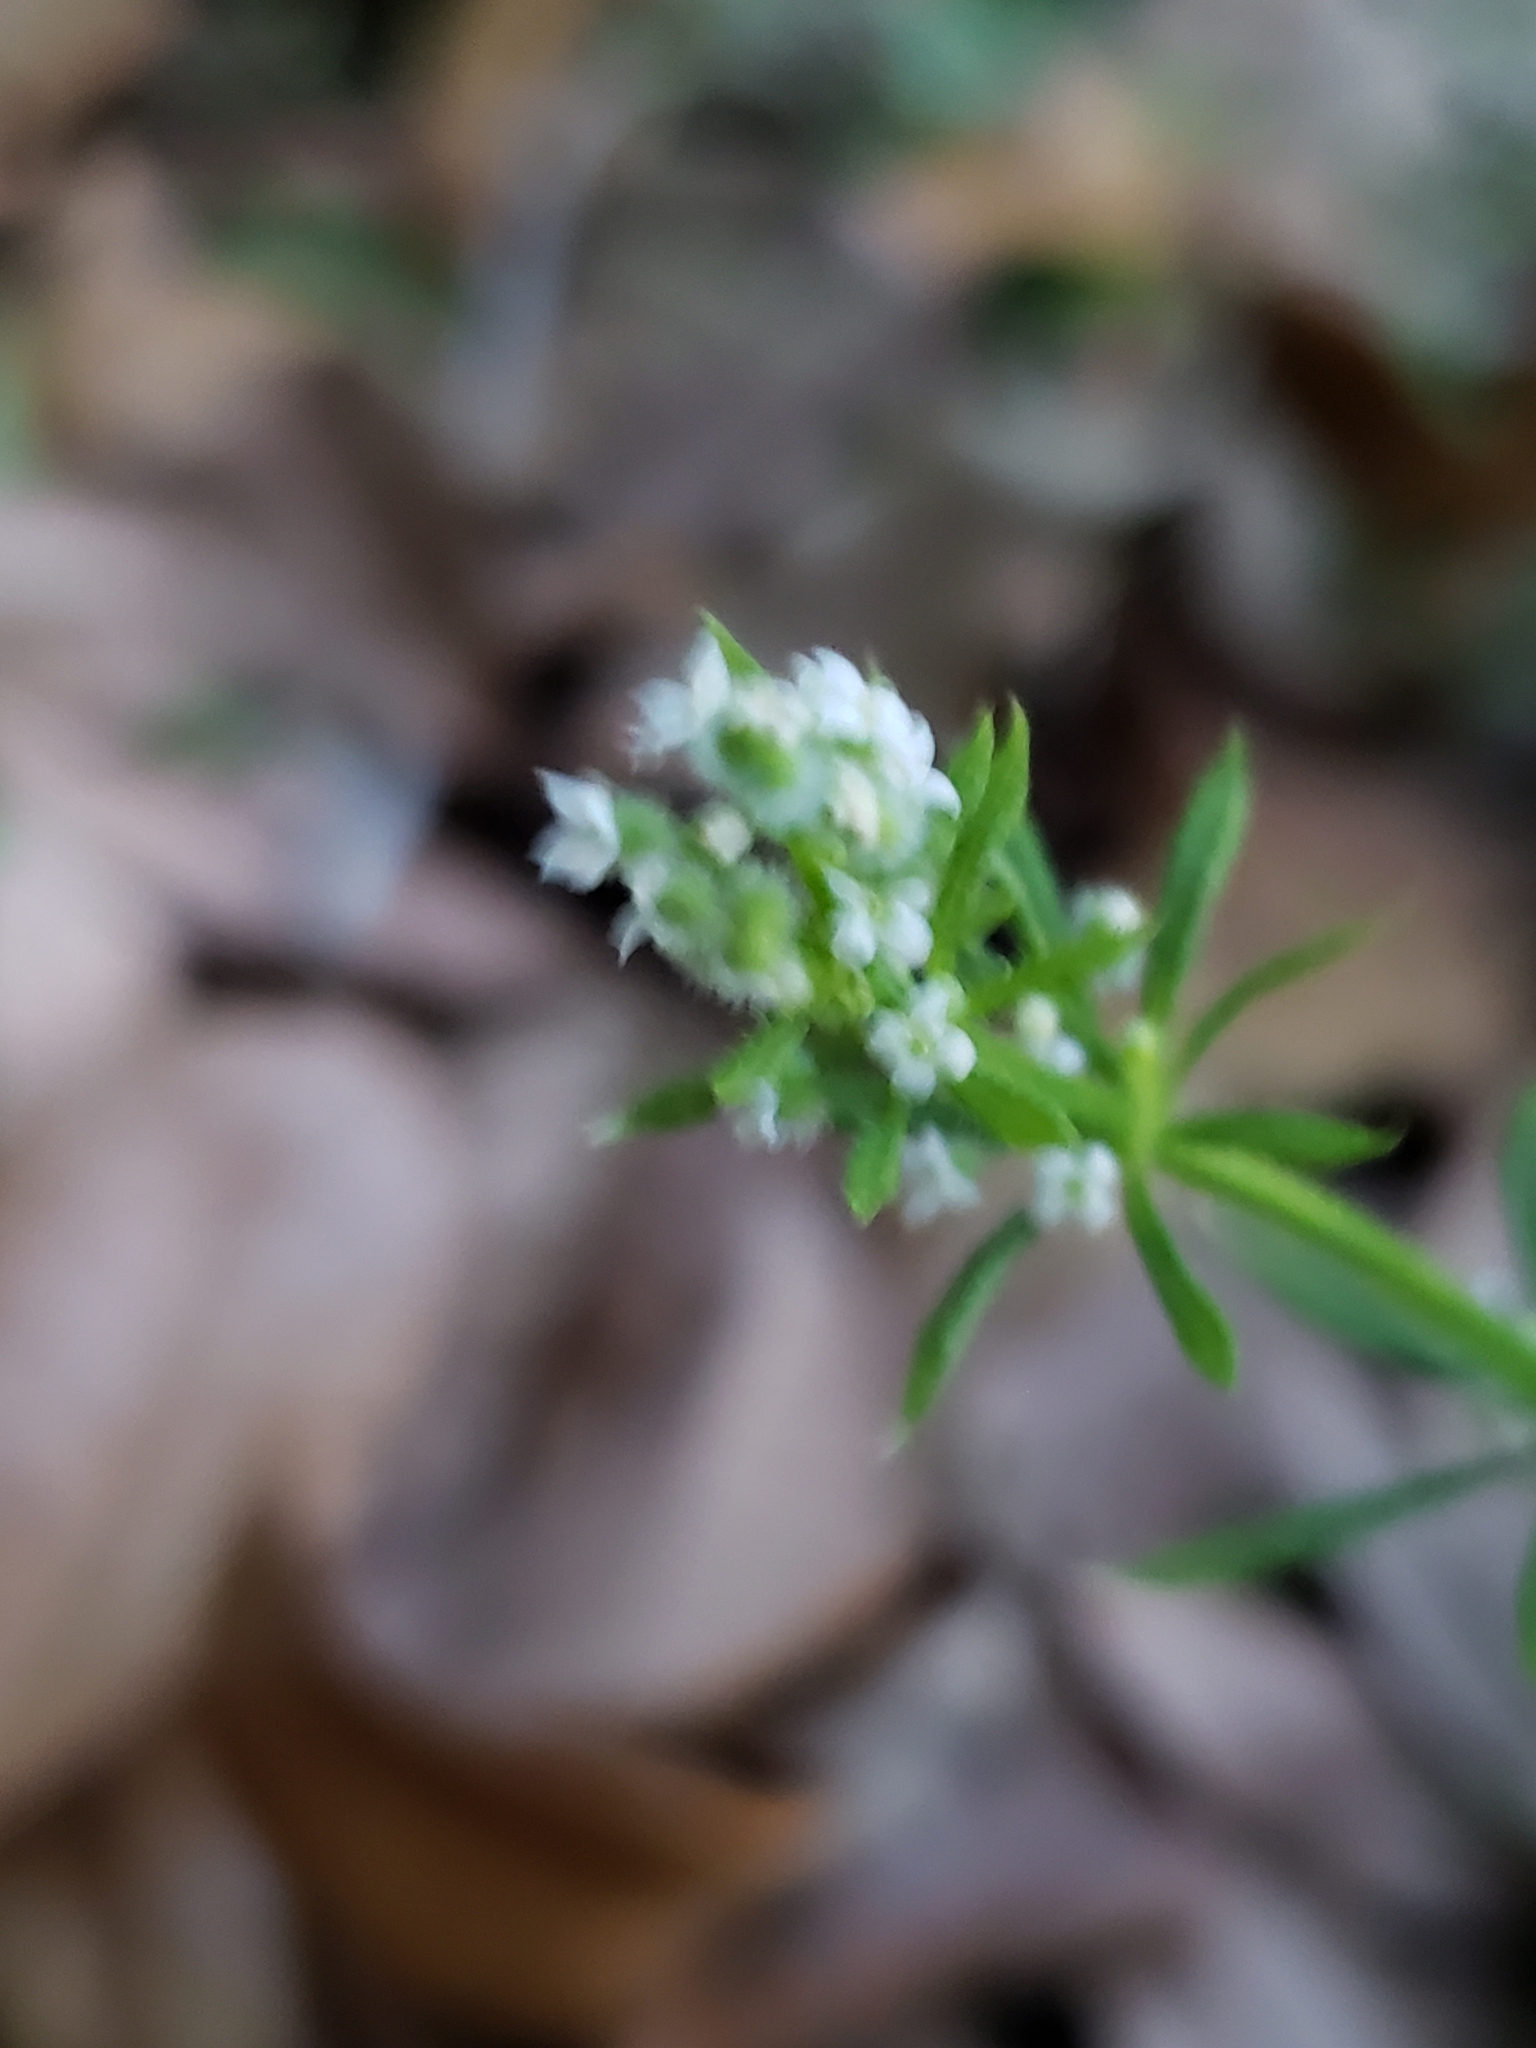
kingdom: Plantae
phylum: Tracheophyta
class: Magnoliopsida
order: Gentianales
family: Rubiaceae
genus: Galium
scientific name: Galium aparine
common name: Cleavers
